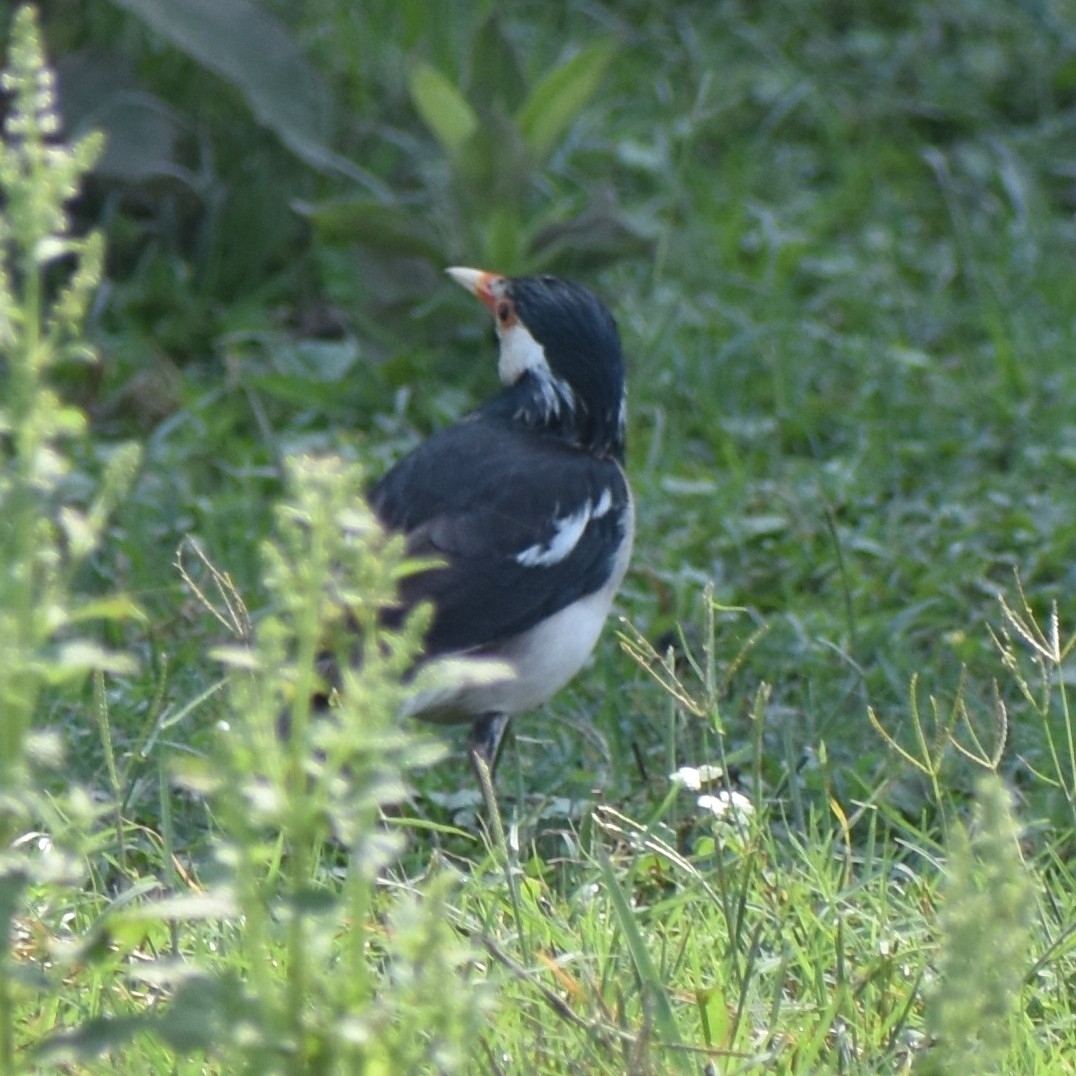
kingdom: Animalia
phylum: Chordata
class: Aves
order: Passeriformes
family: Sturnidae
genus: Gracupica
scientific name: Gracupica contra
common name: Pied myna
